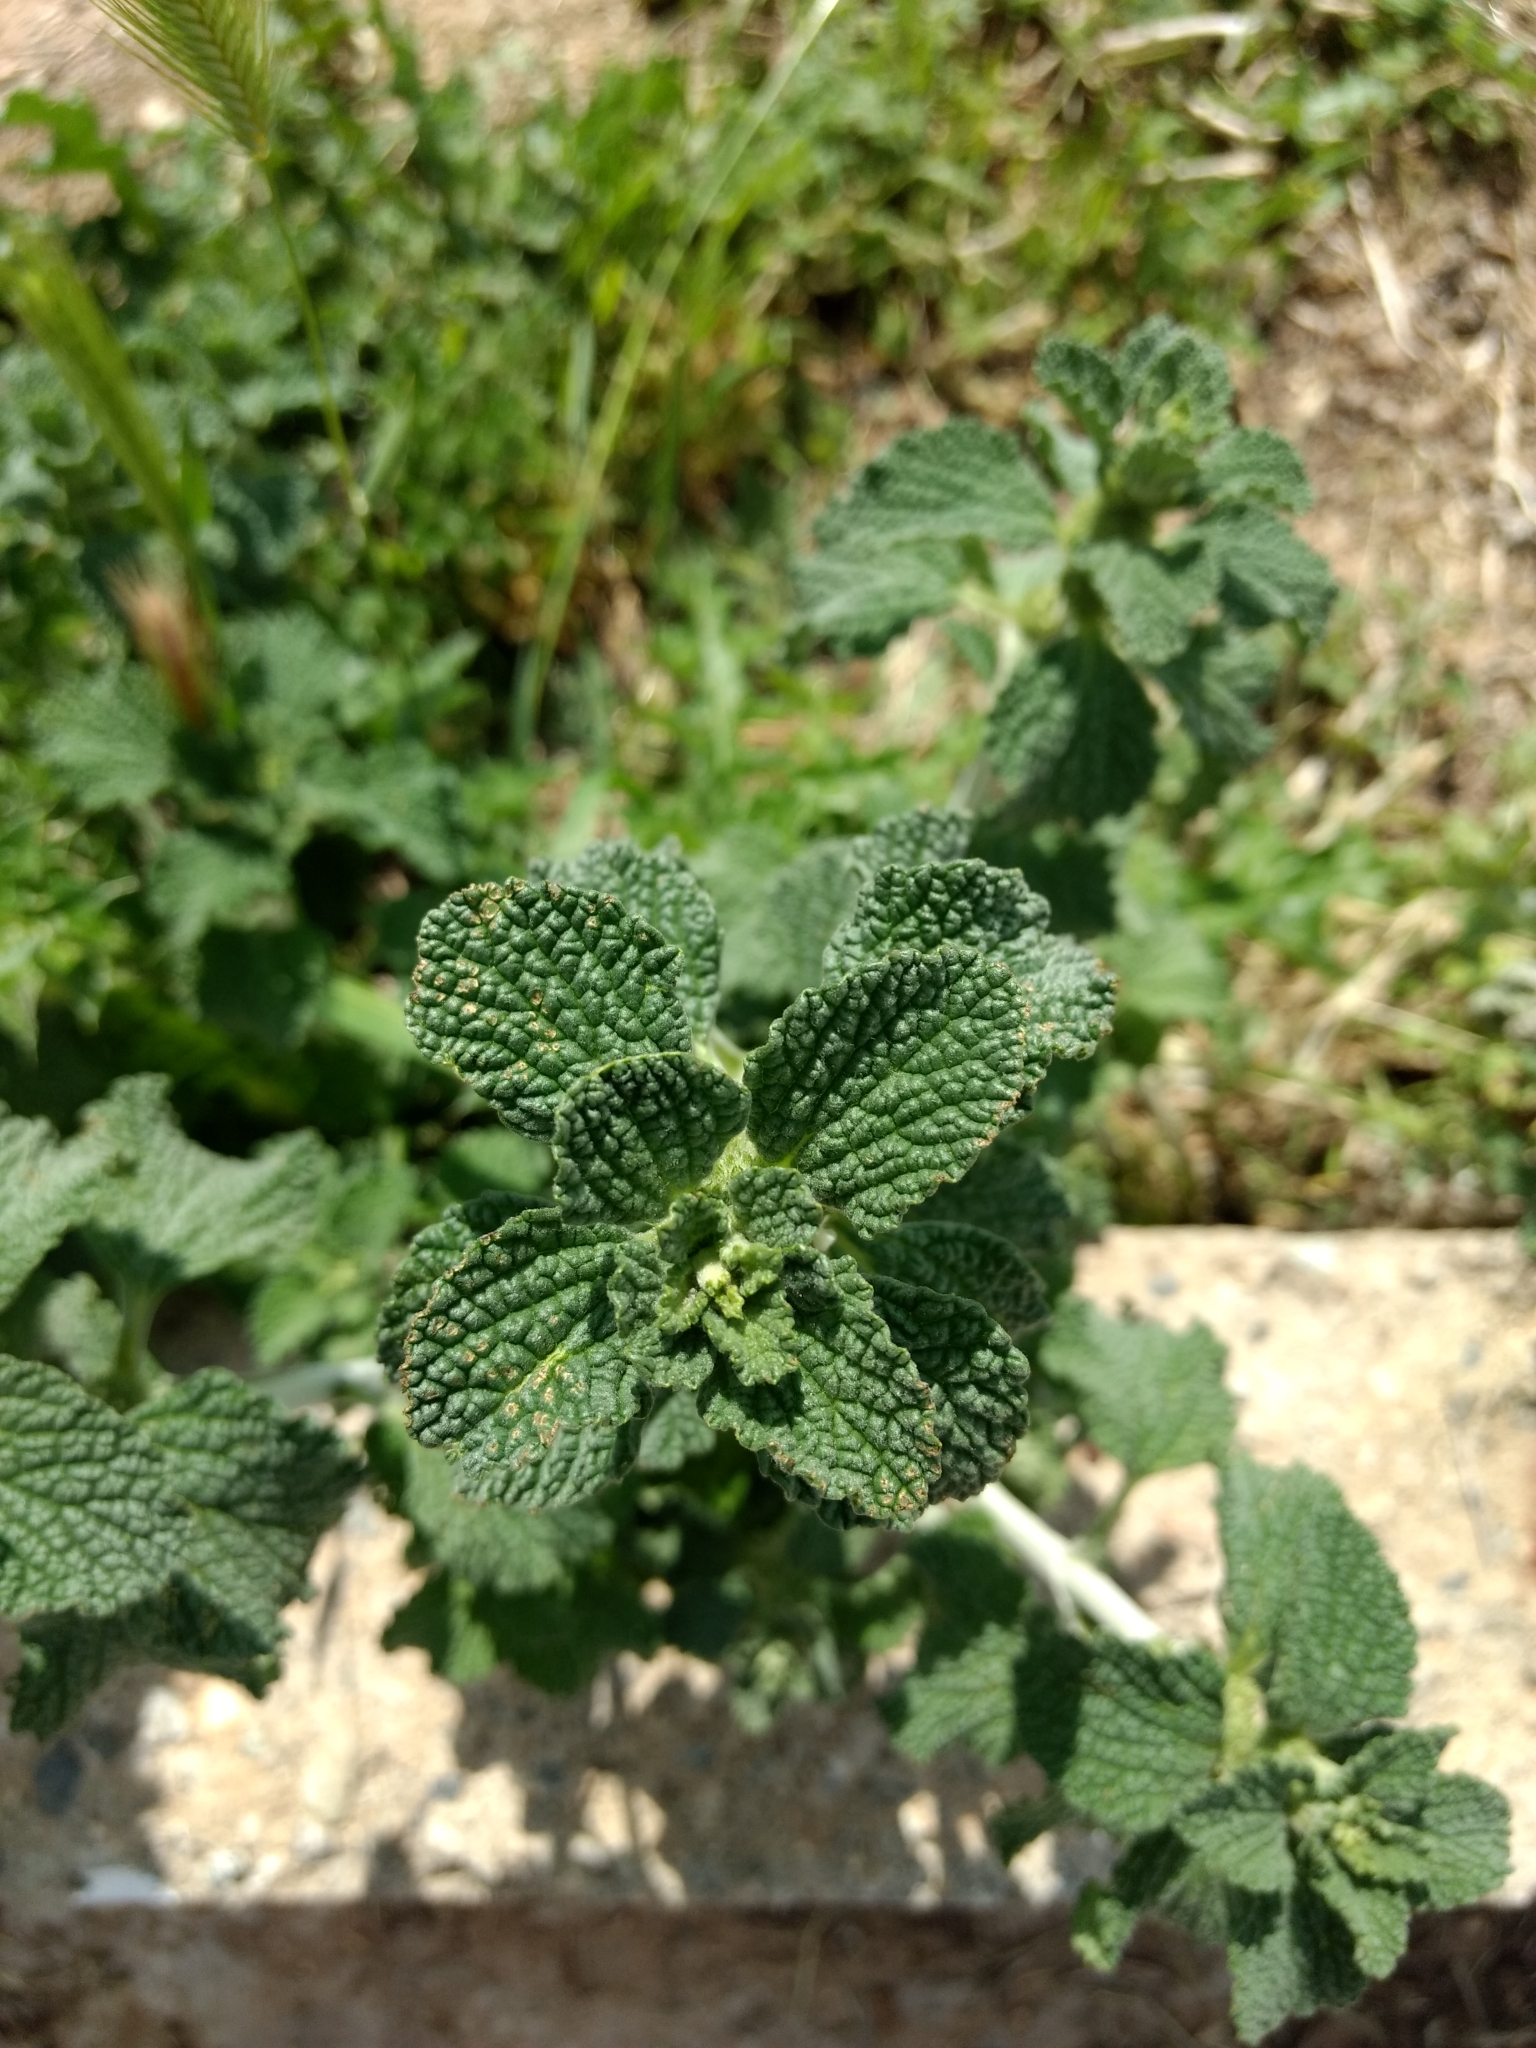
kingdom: Plantae
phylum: Tracheophyta
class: Magnoliopsida
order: Lamiales
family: Lamiaceae
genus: Marrubium
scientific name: Marrubium vulgare
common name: Horehound
